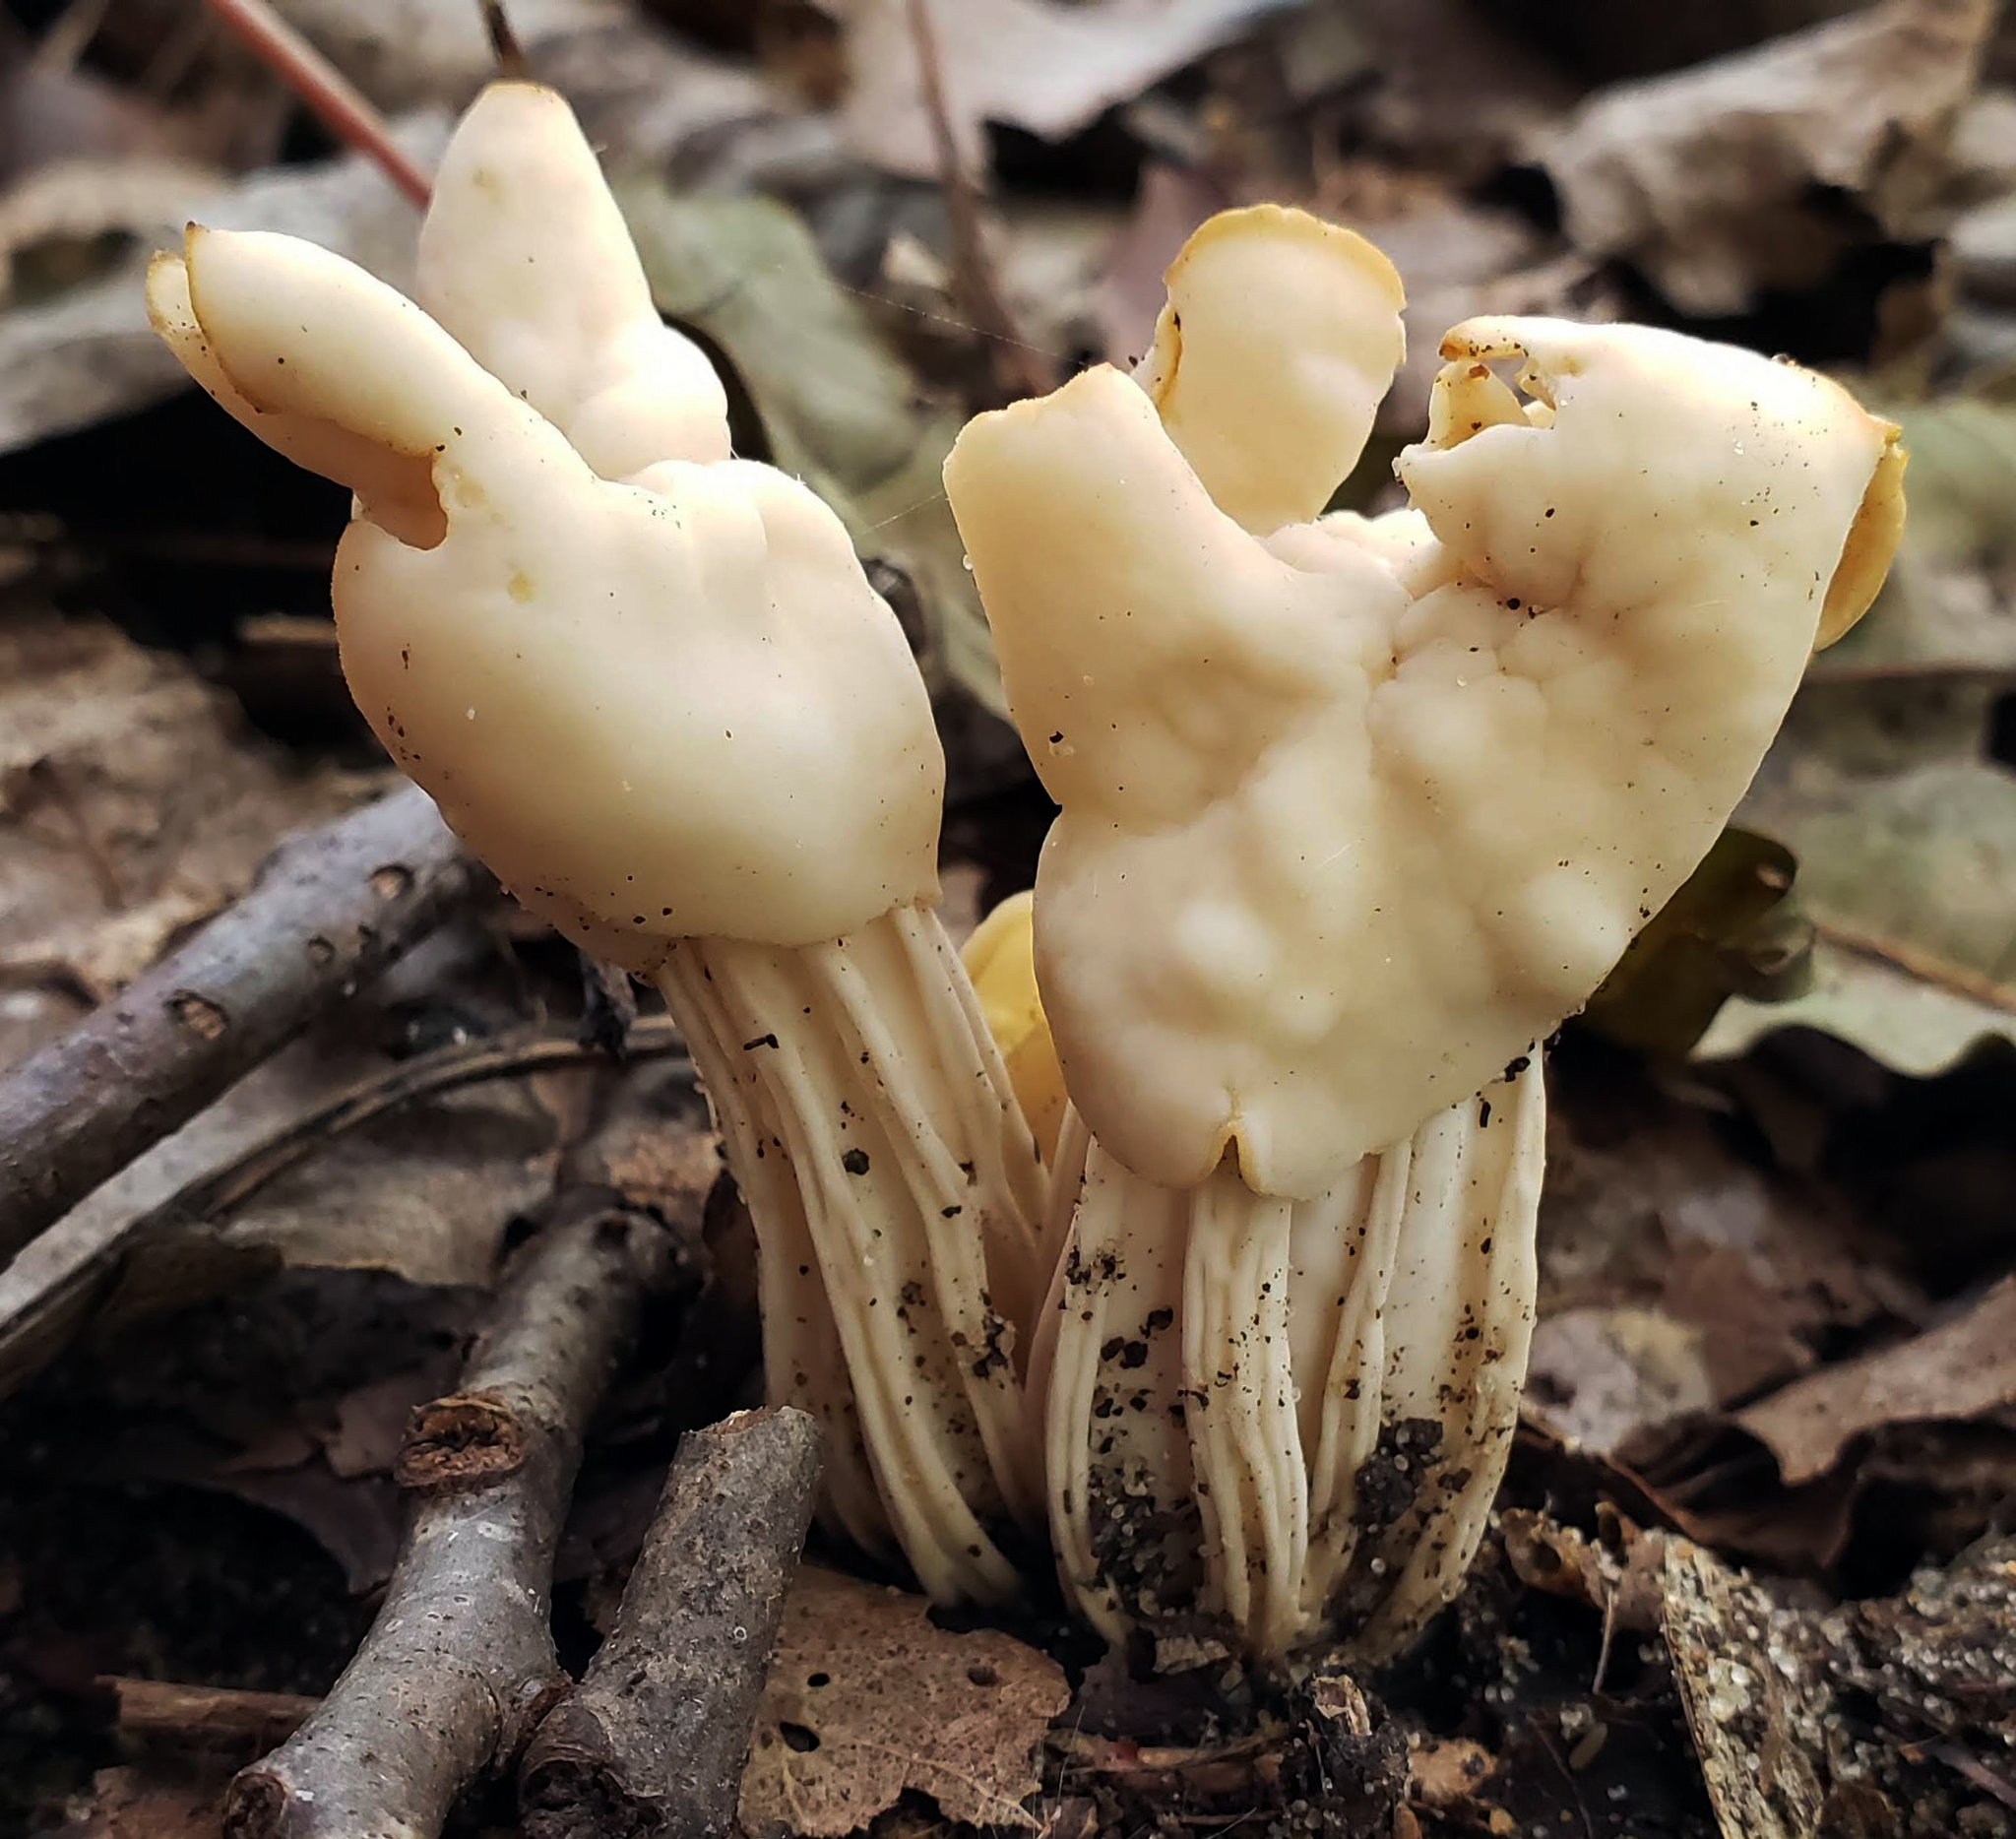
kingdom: Fungi
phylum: Ascomycota
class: Pezizomycetes
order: Pezizales
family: Helvellaceae
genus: Helvella
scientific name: Helvella crispa
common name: White saddle
